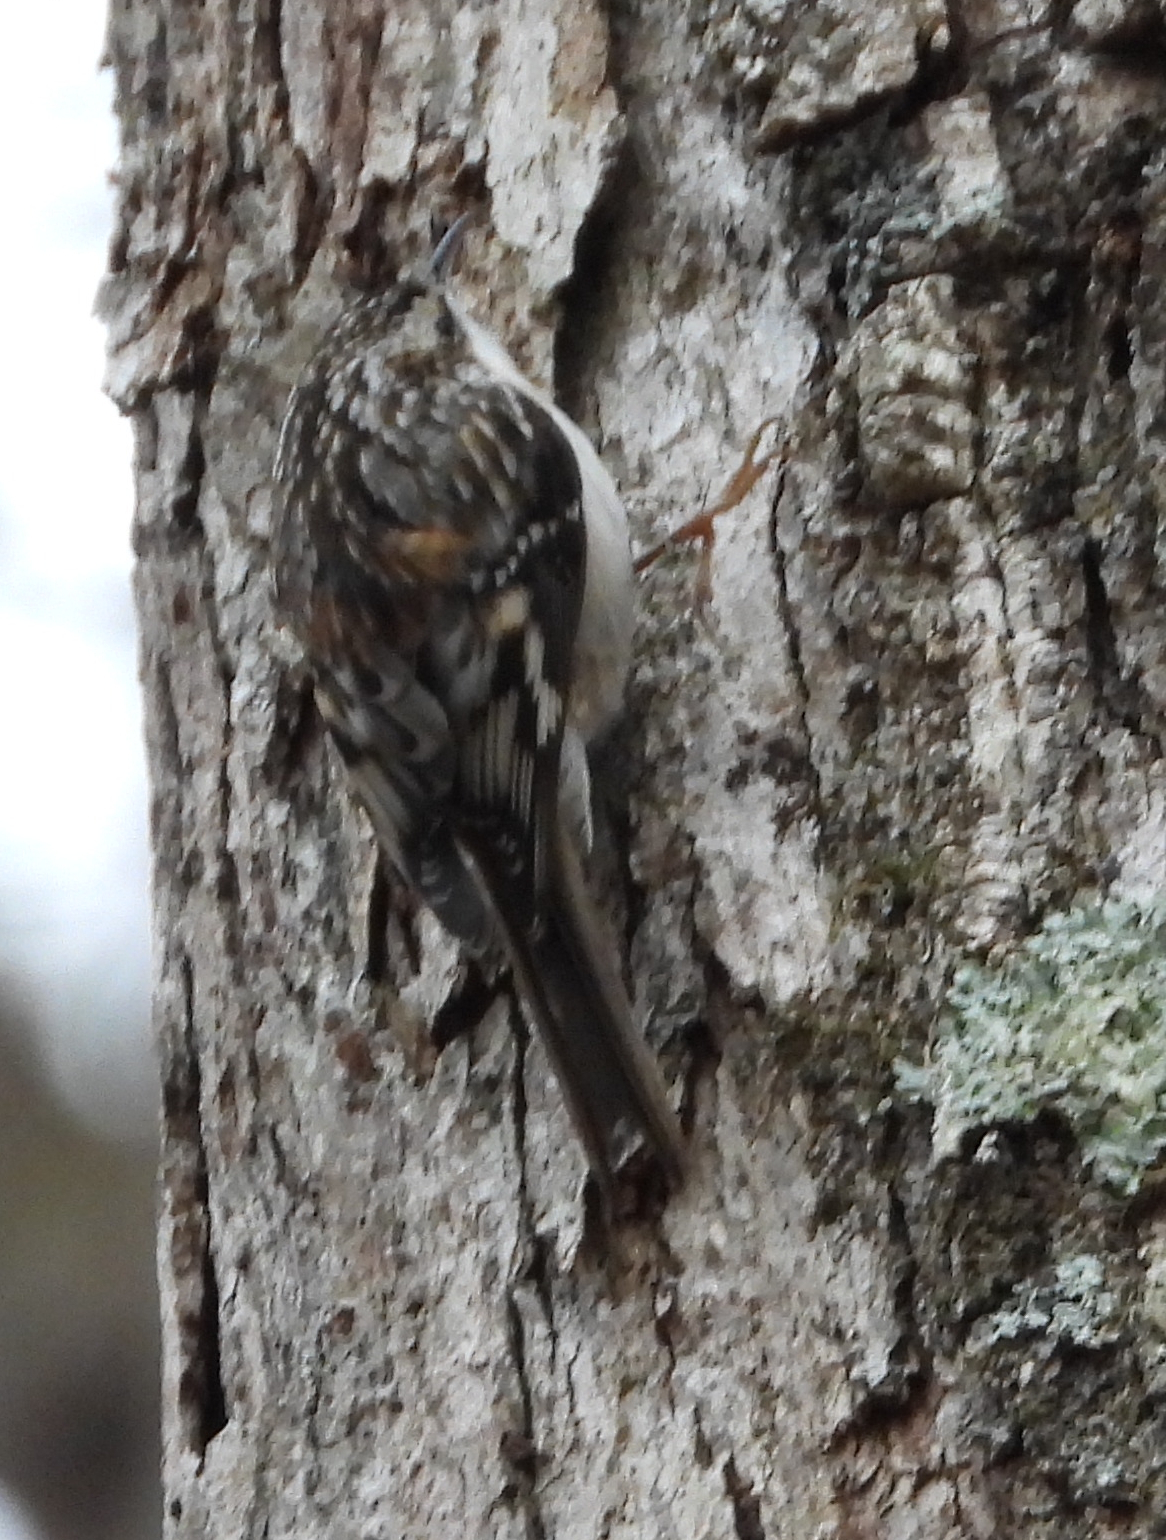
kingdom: Animalia
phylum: Chordata
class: Aves
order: Passeriformes
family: Certhiidae
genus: Certhia
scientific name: Certhia americana
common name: Brown creeper
